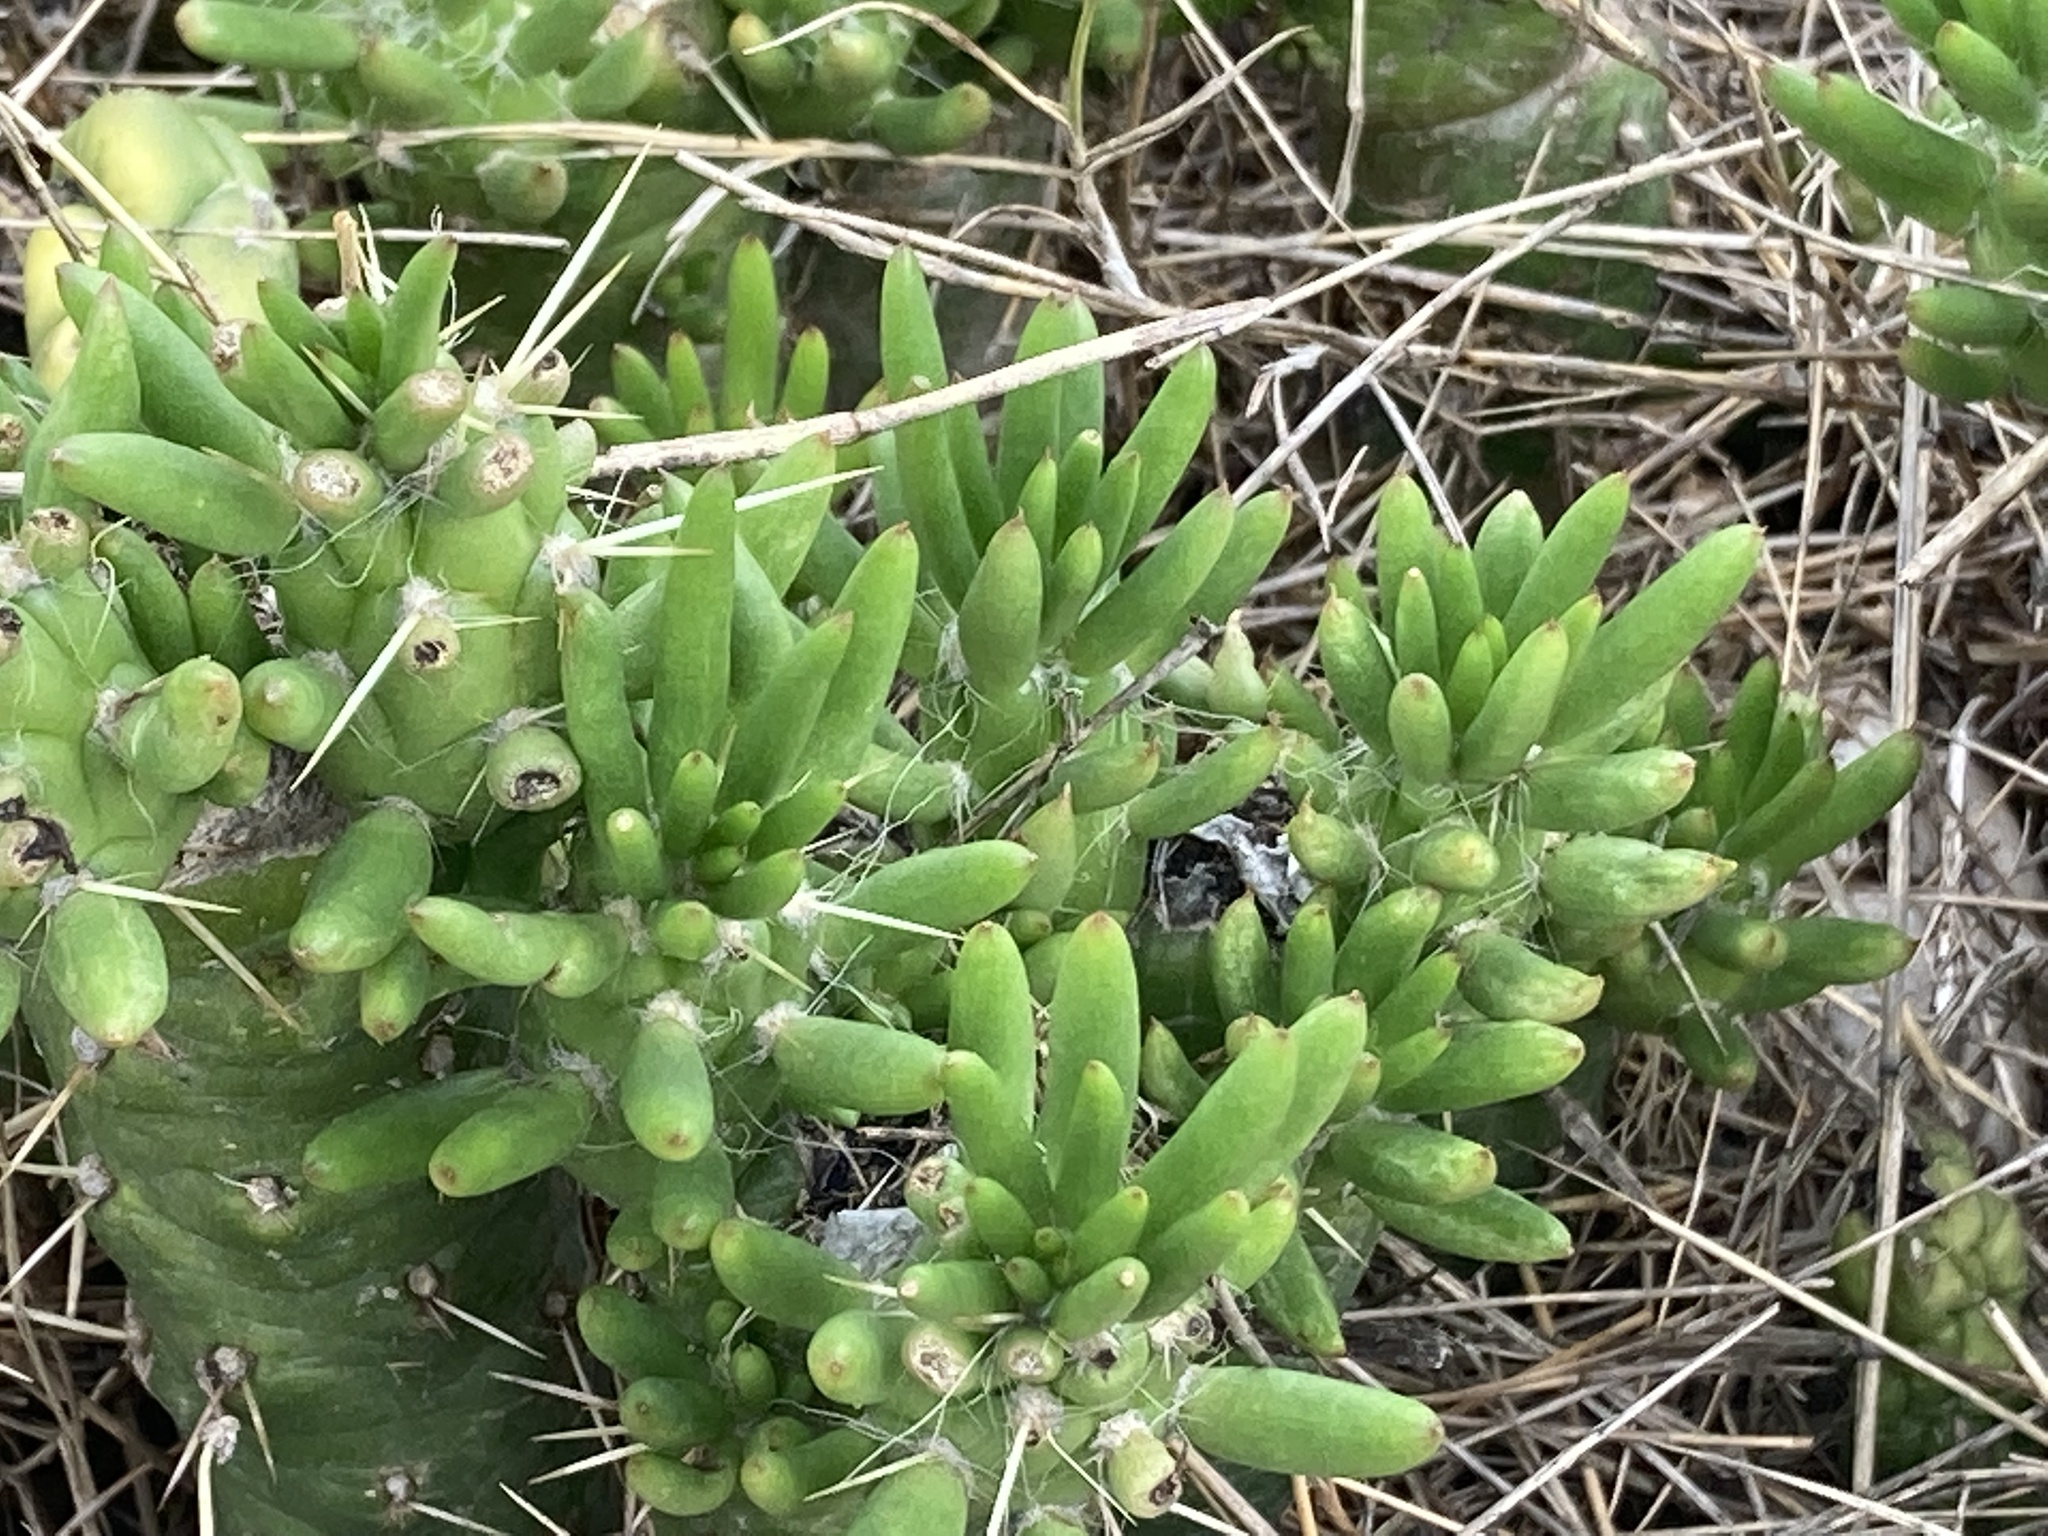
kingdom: Plantae
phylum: Tracheophyta
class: Magnoliopsida
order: Caryophyllales
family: Cactaceae
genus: Austrocylindropuntia
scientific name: Austrocylindropuntia subulata
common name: Eve's needle cactus
